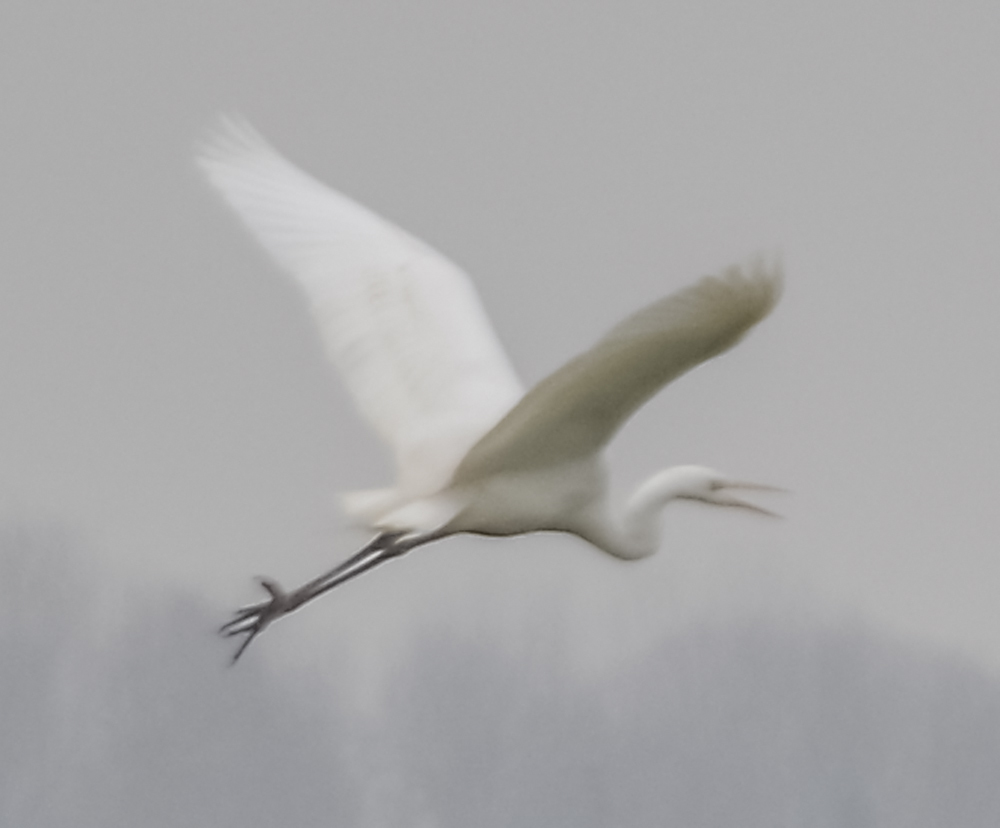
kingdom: Animalia
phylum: Chordata
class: Aves
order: Pelecaniformes
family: Ardeidae
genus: Ardea
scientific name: Ardea alba
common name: Great egret
